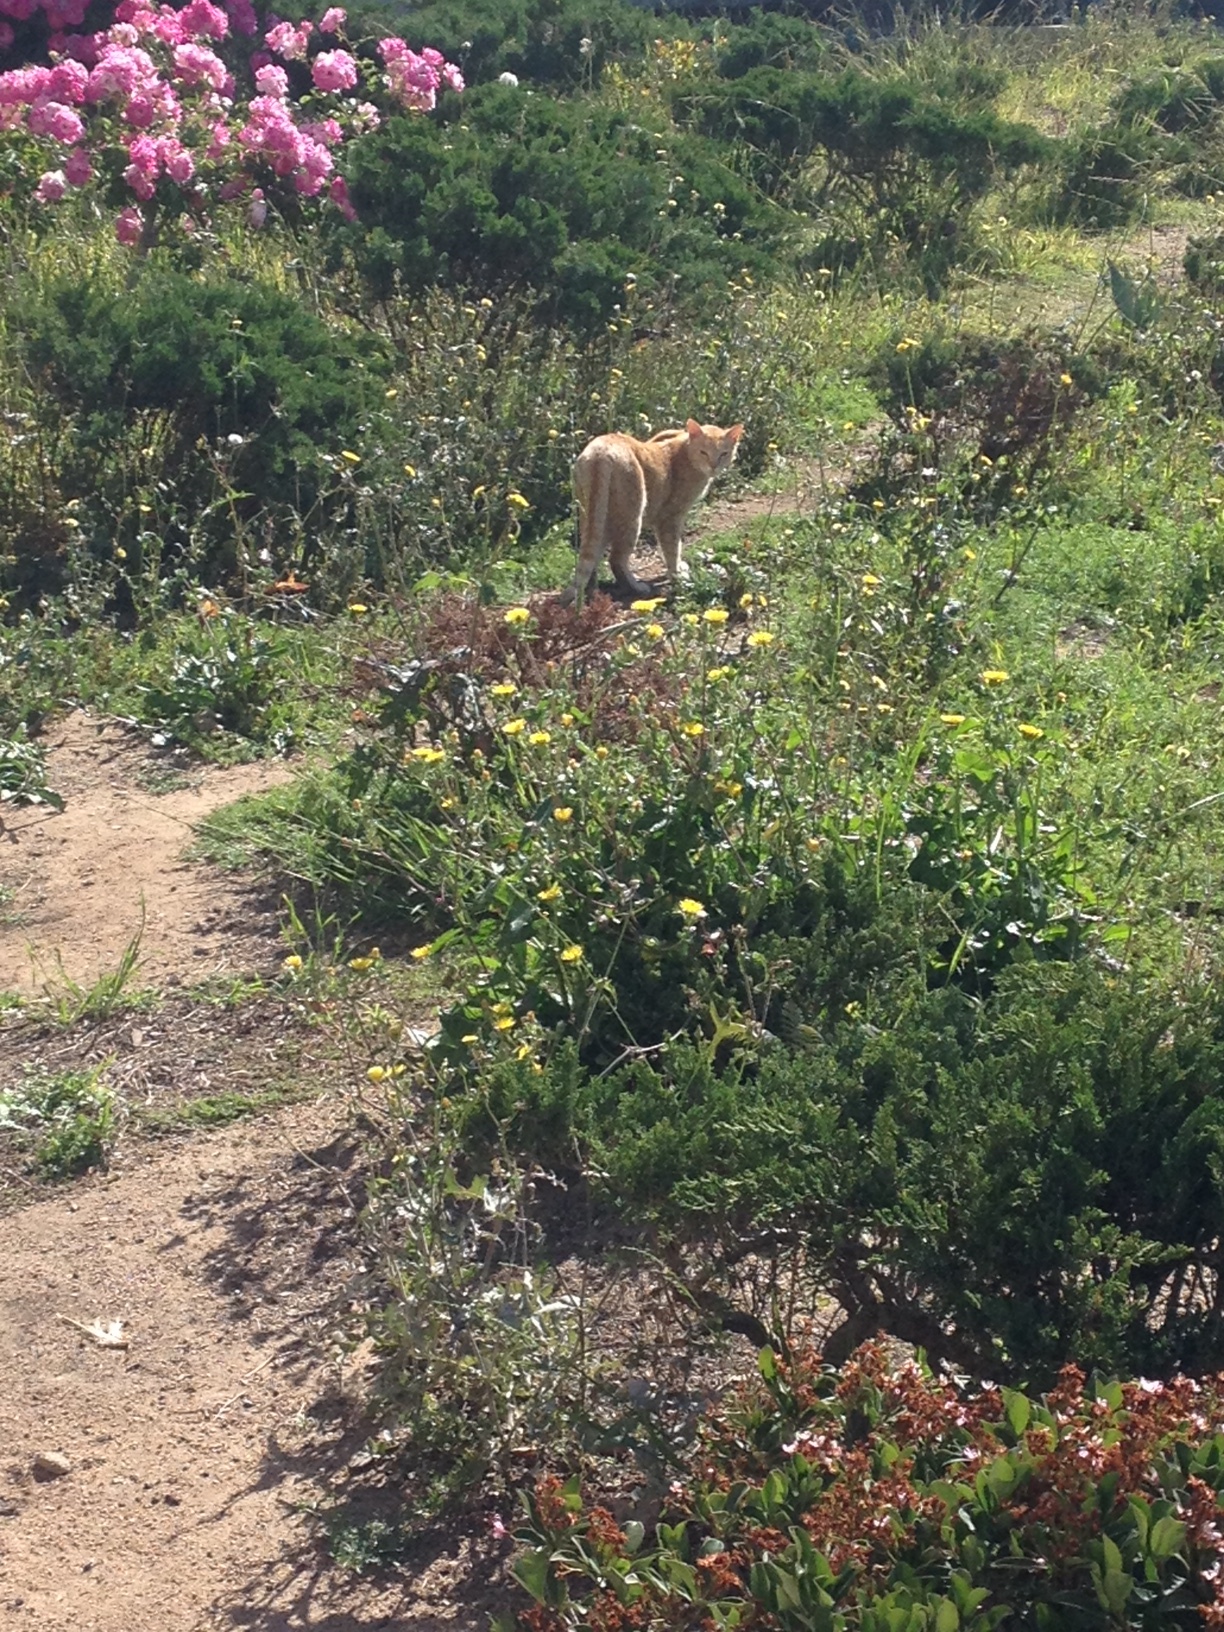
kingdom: Animalia
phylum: Chordata
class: Mammalia
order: Carnivora
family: Felidae
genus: Felis
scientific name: Felis catus
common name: Domestic cat
